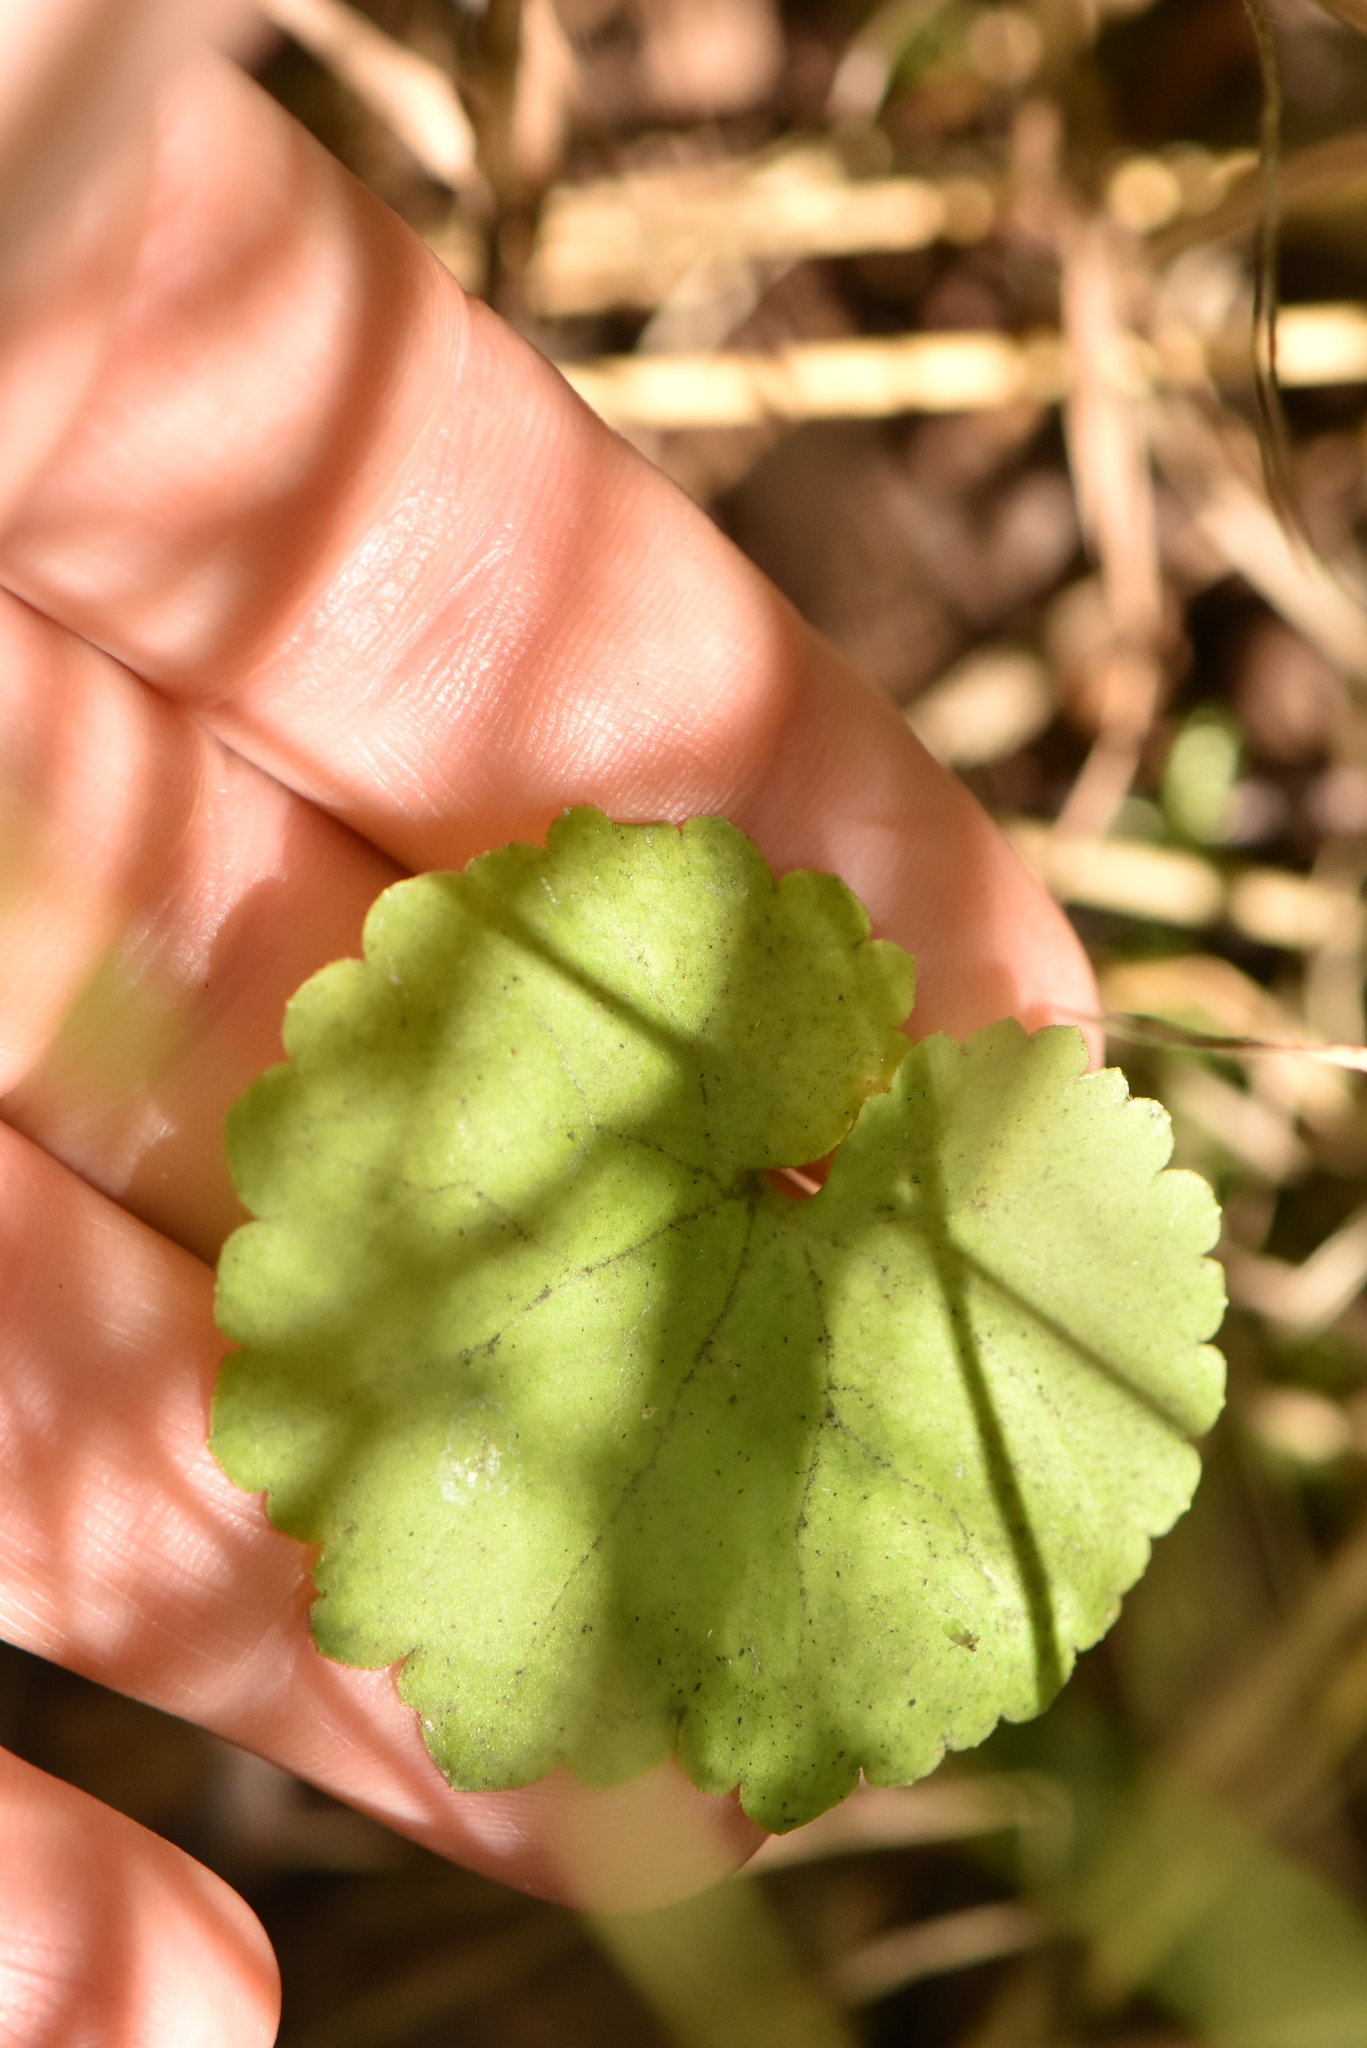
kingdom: Plantae
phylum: Tracheophyta
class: Magnoliopsida
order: Lamiales
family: Lamiaceae
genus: Glechoma
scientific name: Glechoma hederacea
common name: Ground ivy
